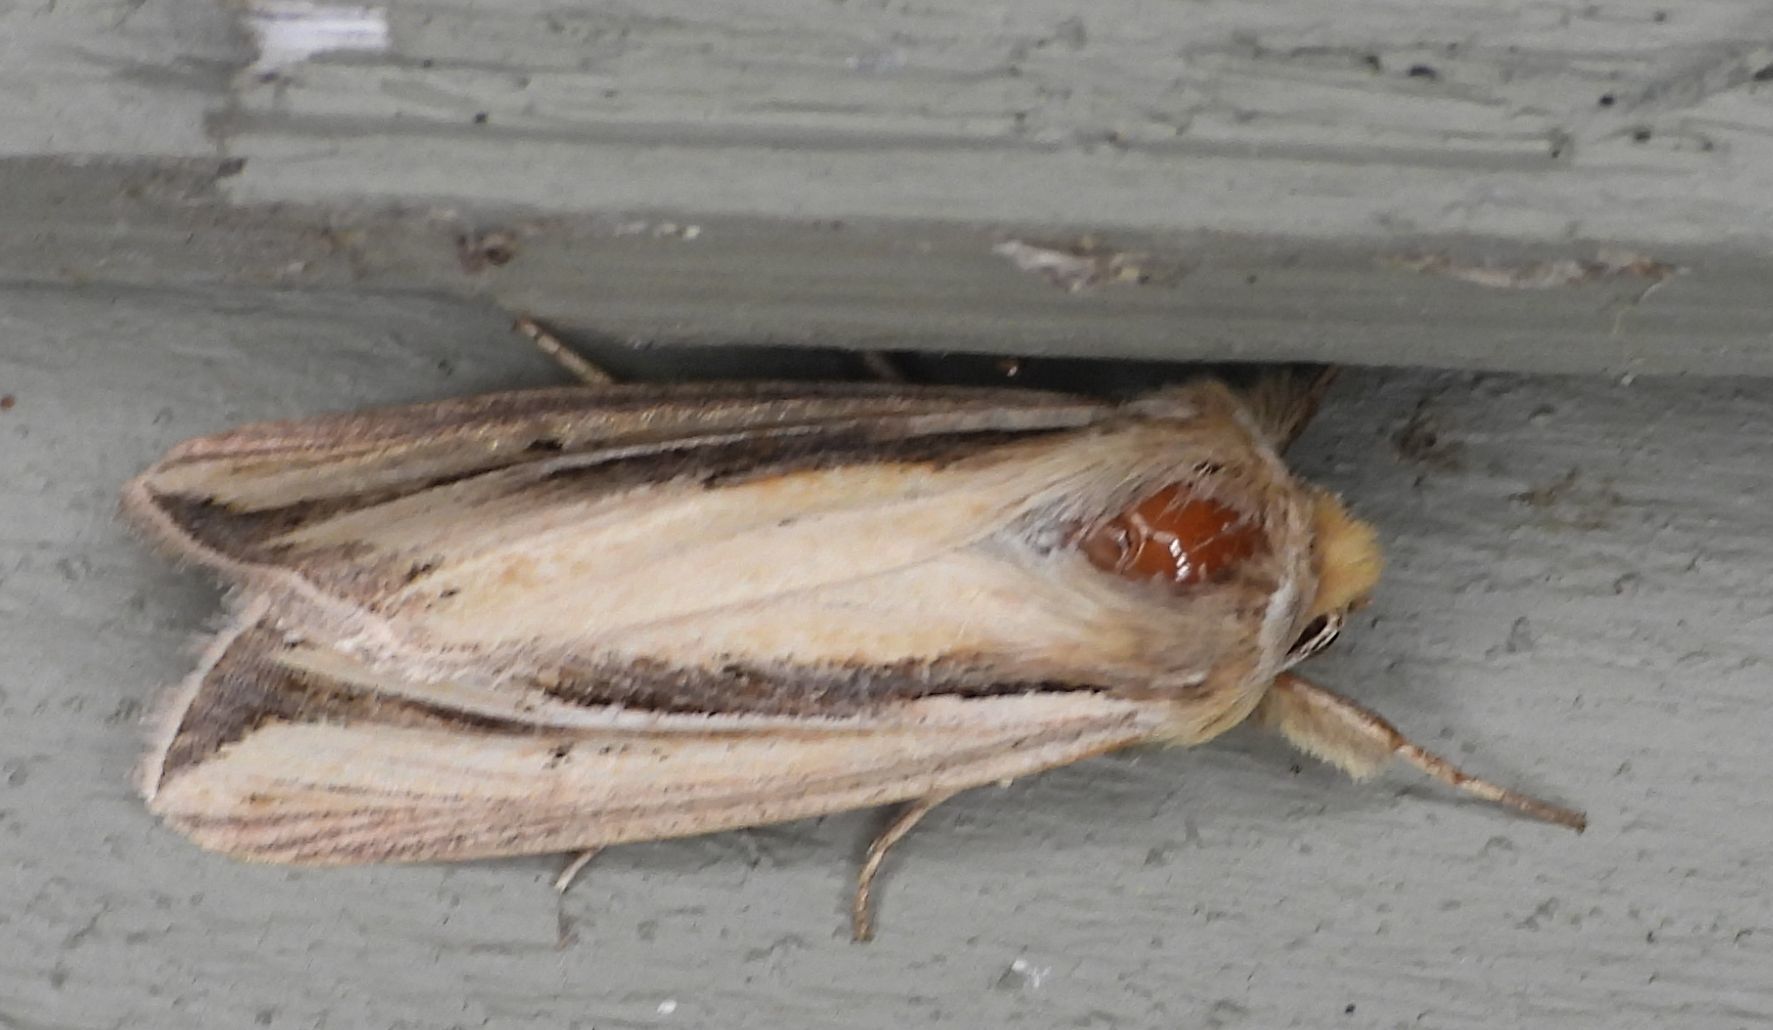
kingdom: Animalia
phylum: Arthropoda
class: Insecta
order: Lepidoptera
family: Noctuidae
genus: Dargida
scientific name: Dargida diffusa
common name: Wheat head armyworm
